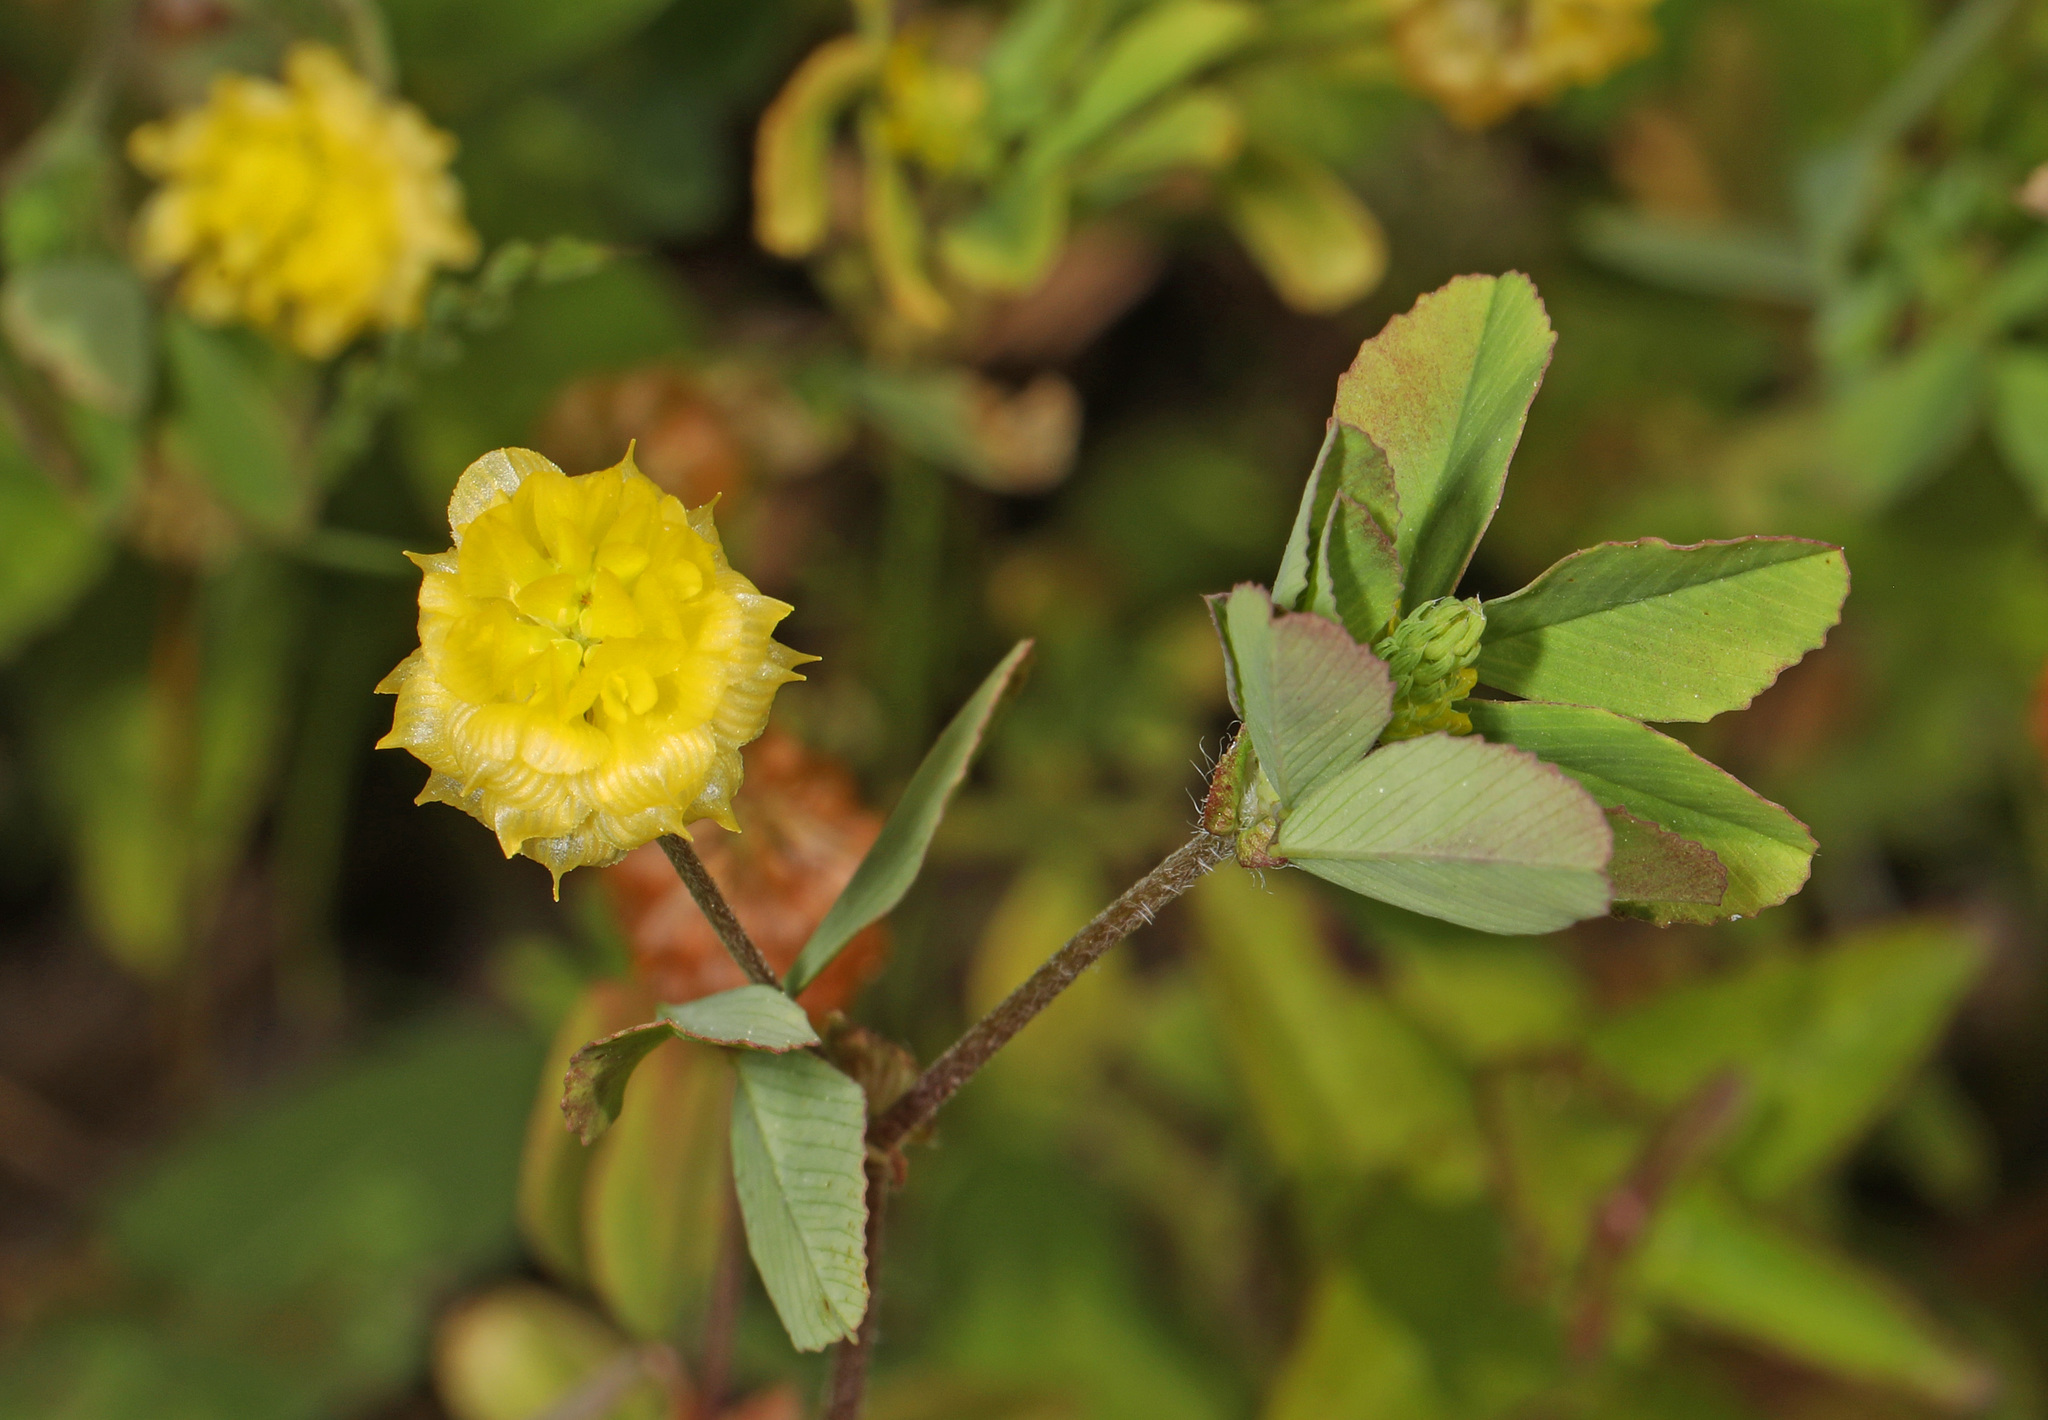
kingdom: Plantae
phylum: Tracheophyta
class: Magnoliopsida
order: Fabales
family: Fabaceae
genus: Trifolium
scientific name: Trifolium campestre
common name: Field clover
